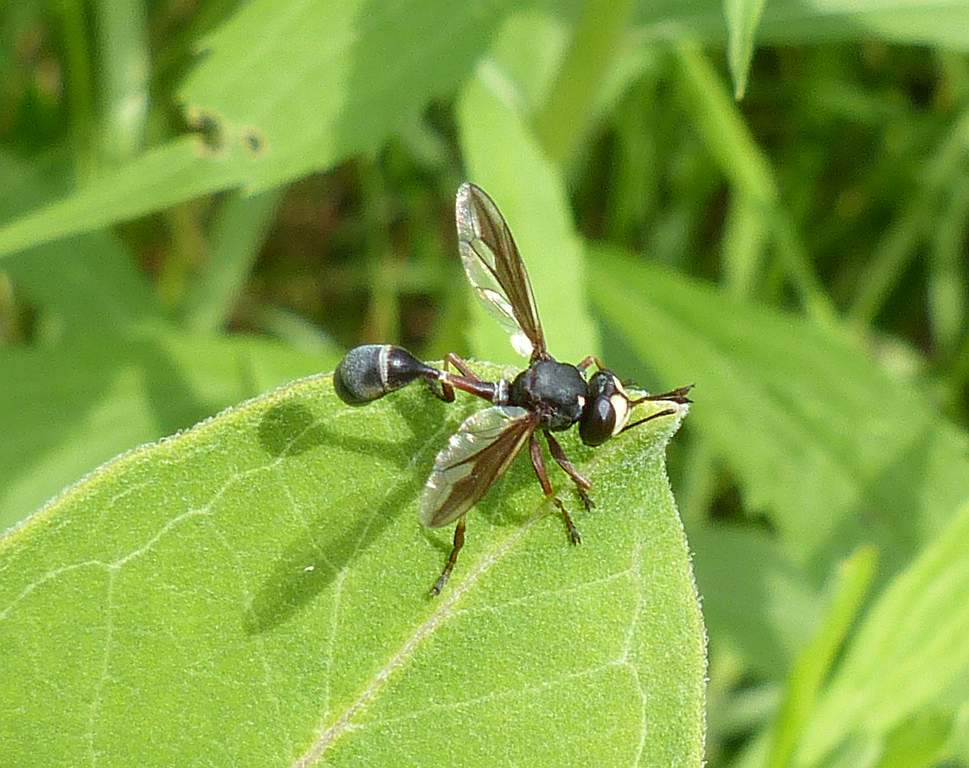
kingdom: Animalia
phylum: Arthropoda
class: Insecta
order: Diptera
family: Conopidae
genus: Physocephala
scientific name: Physocephala furcillata
